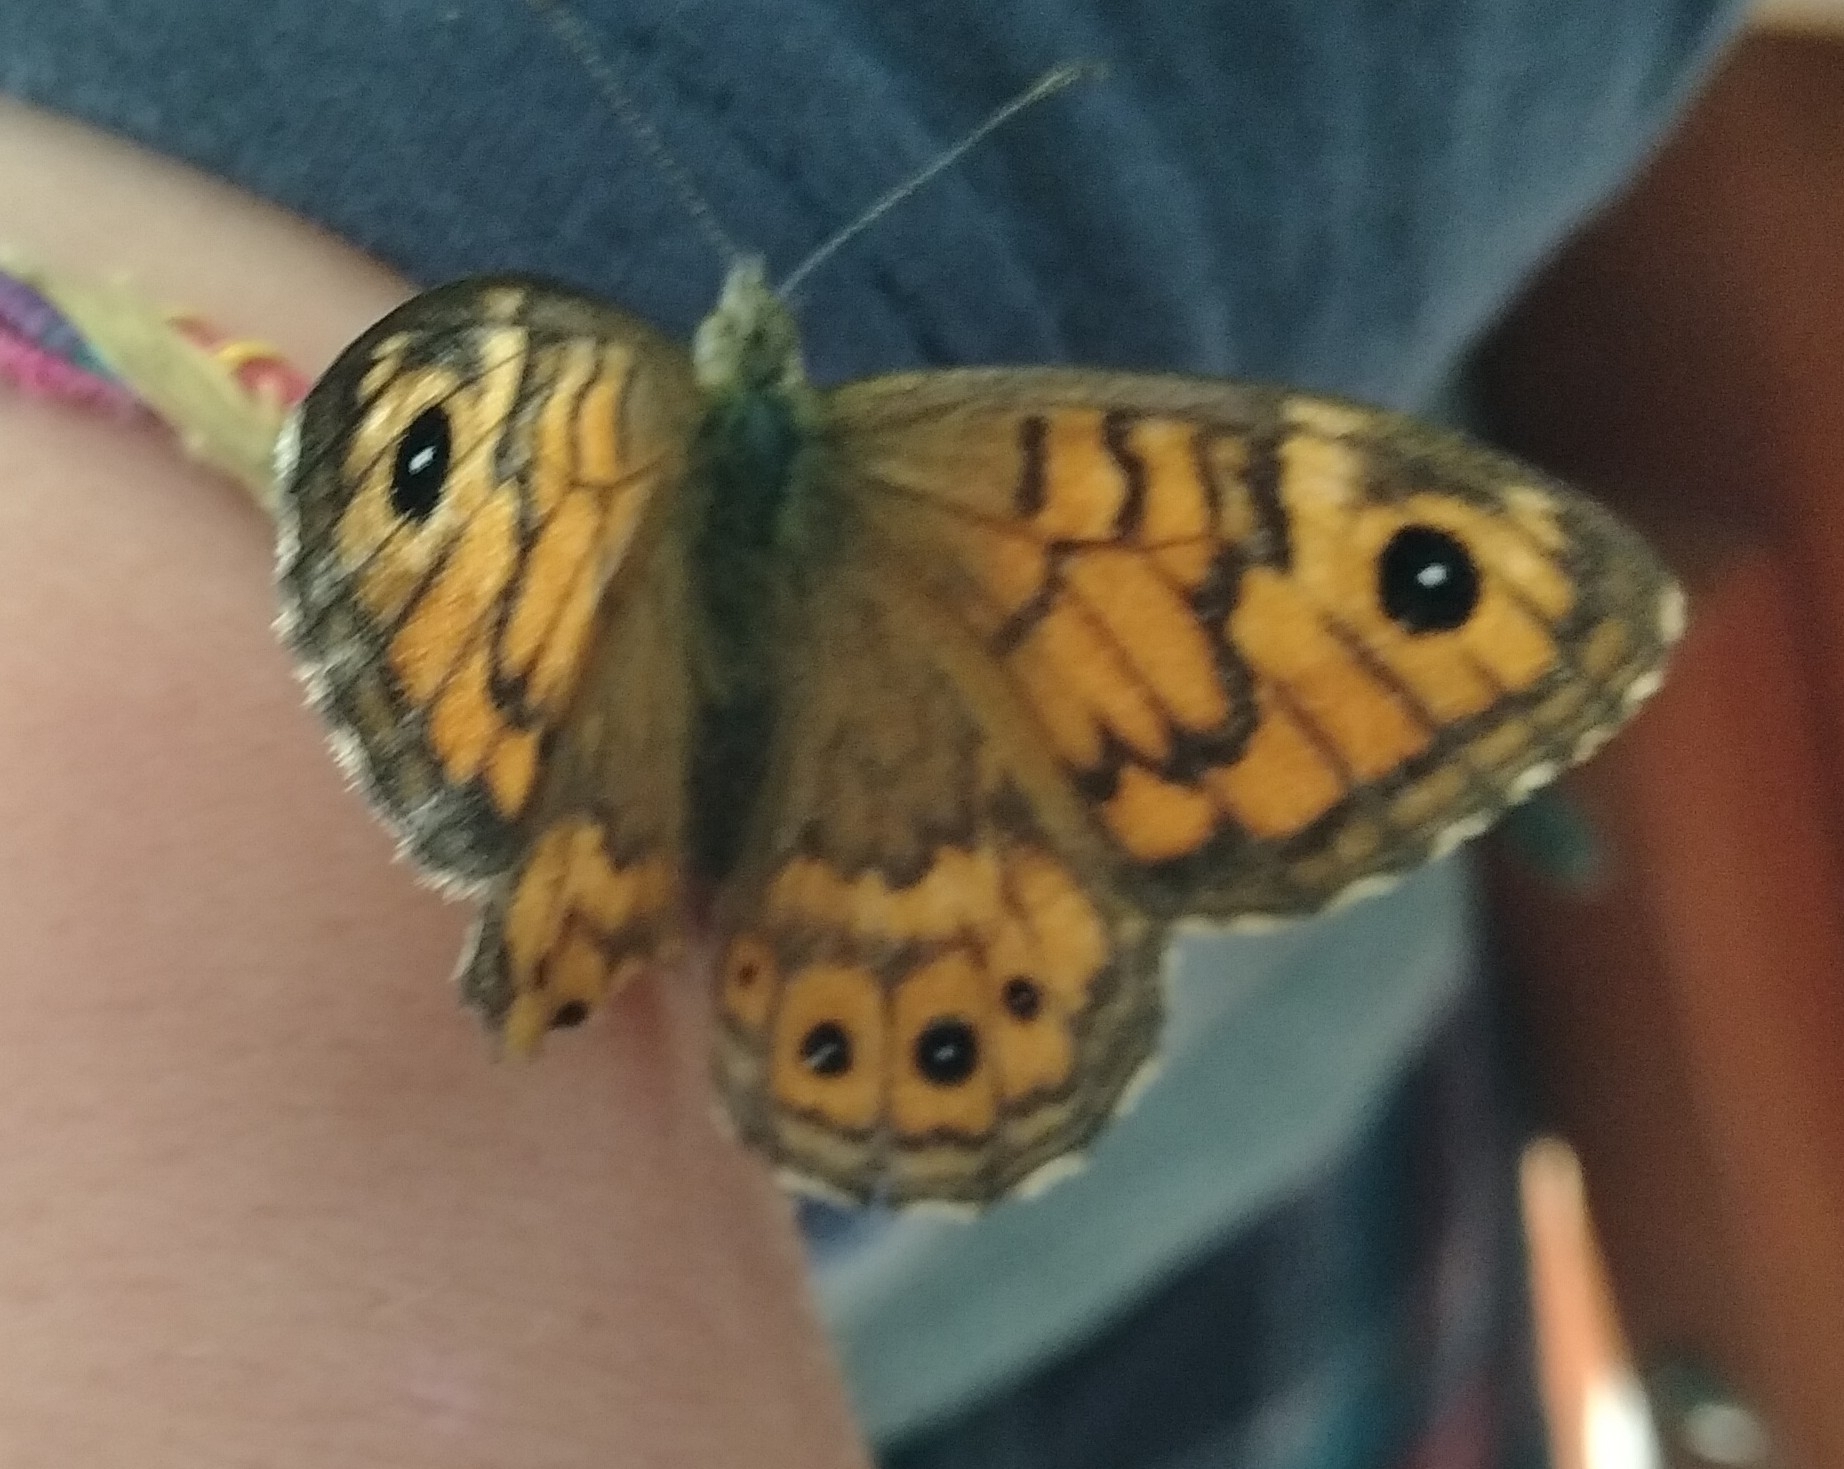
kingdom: Animalia
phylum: Arthropoda
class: Insecta
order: Lepidoptera
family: Nymphalidae
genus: Pararge
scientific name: Pararge Lasiommata megera
